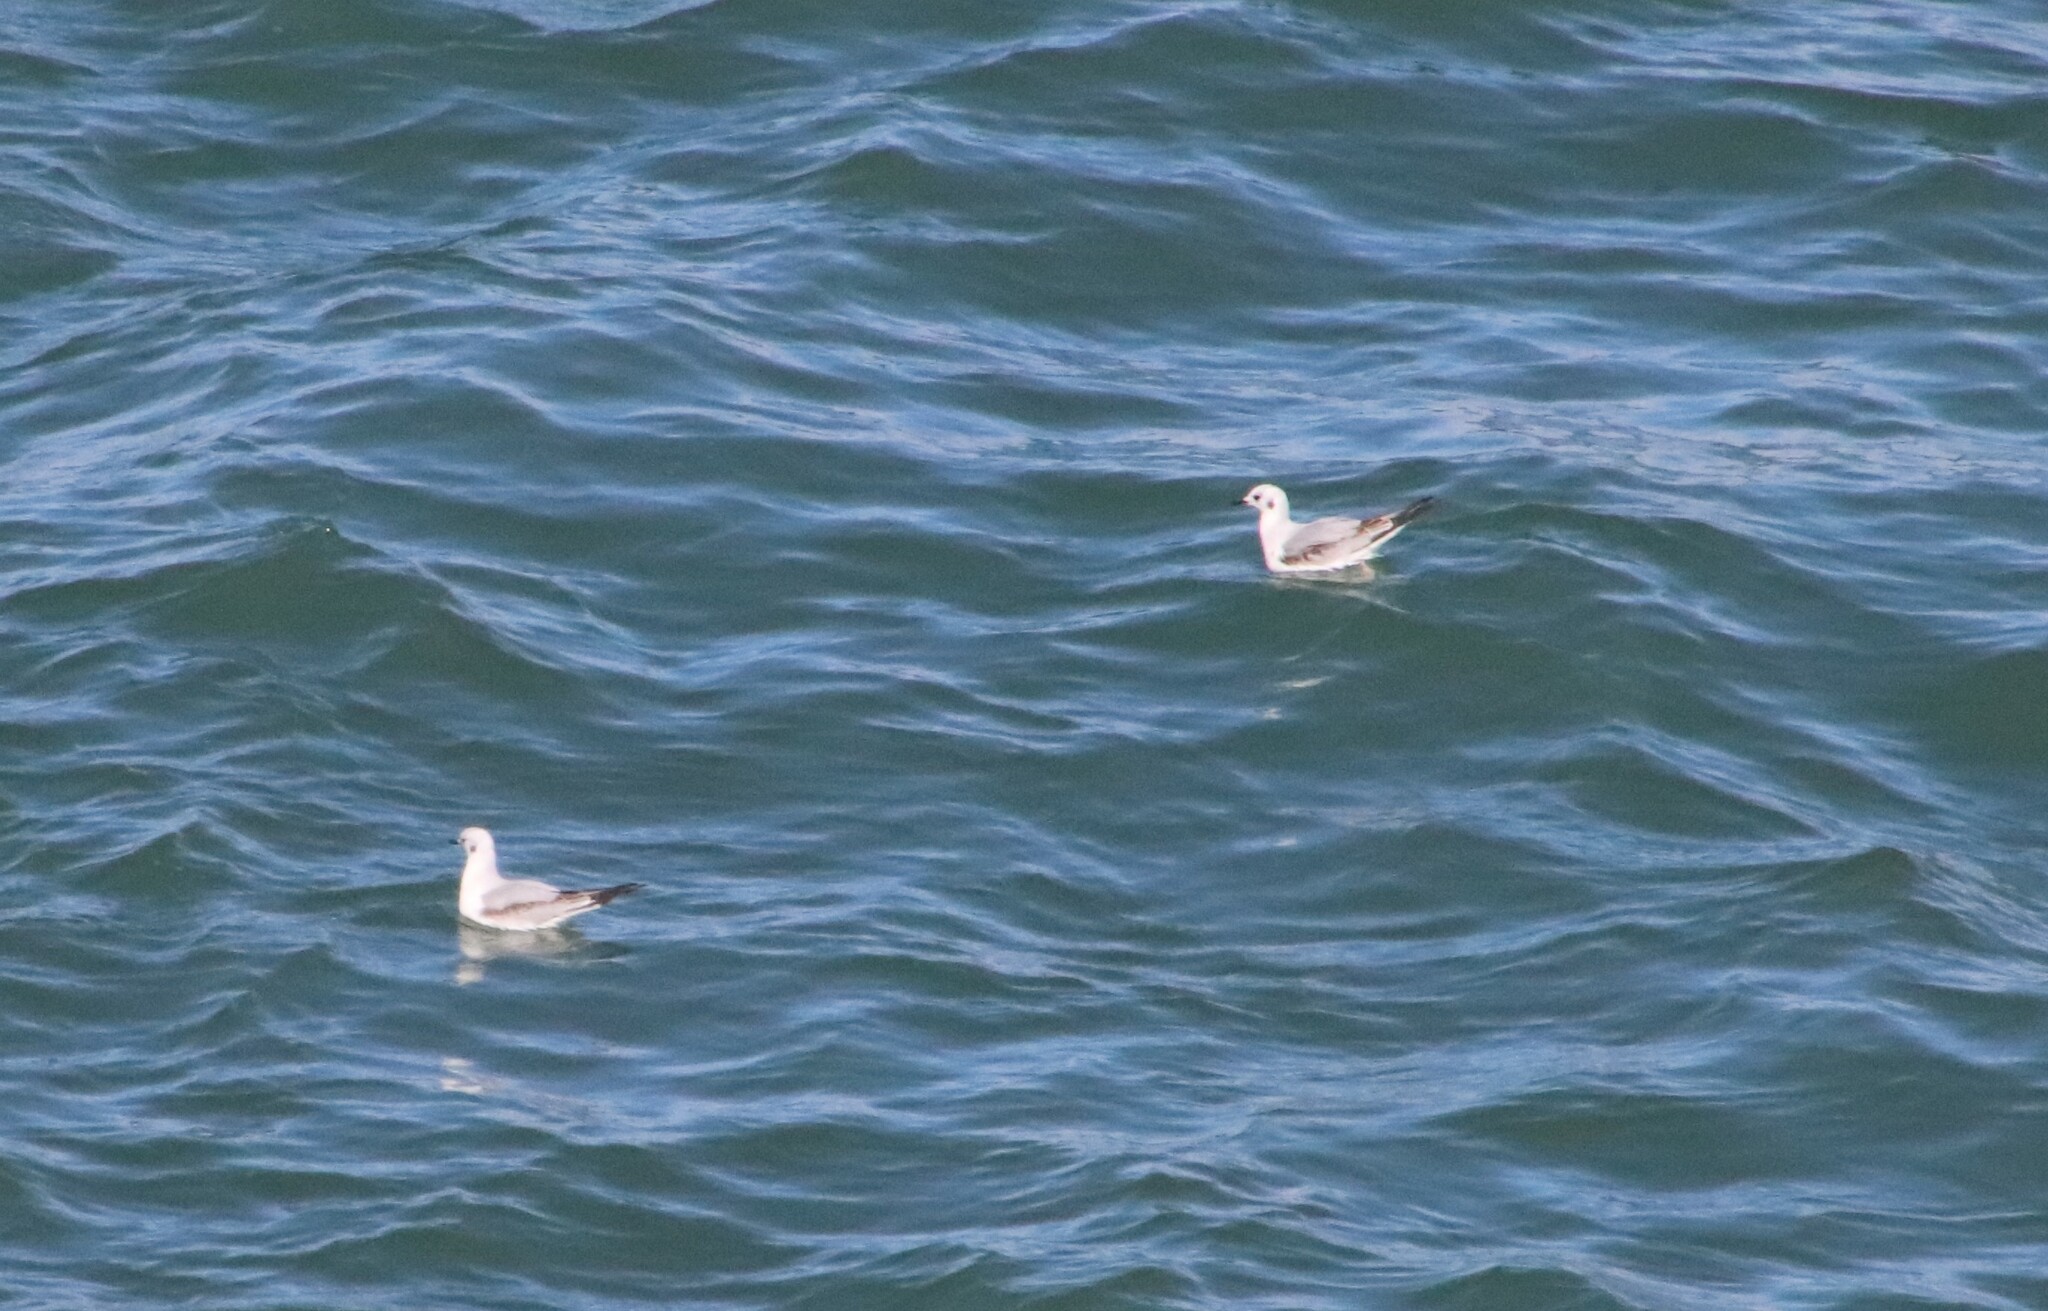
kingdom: Animalia
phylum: Chordata
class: Aves
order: Charadriiformes
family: Laridae
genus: Chroicocephalus
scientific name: Chroicocephalus philadelphia
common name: Bonaparte's gull
